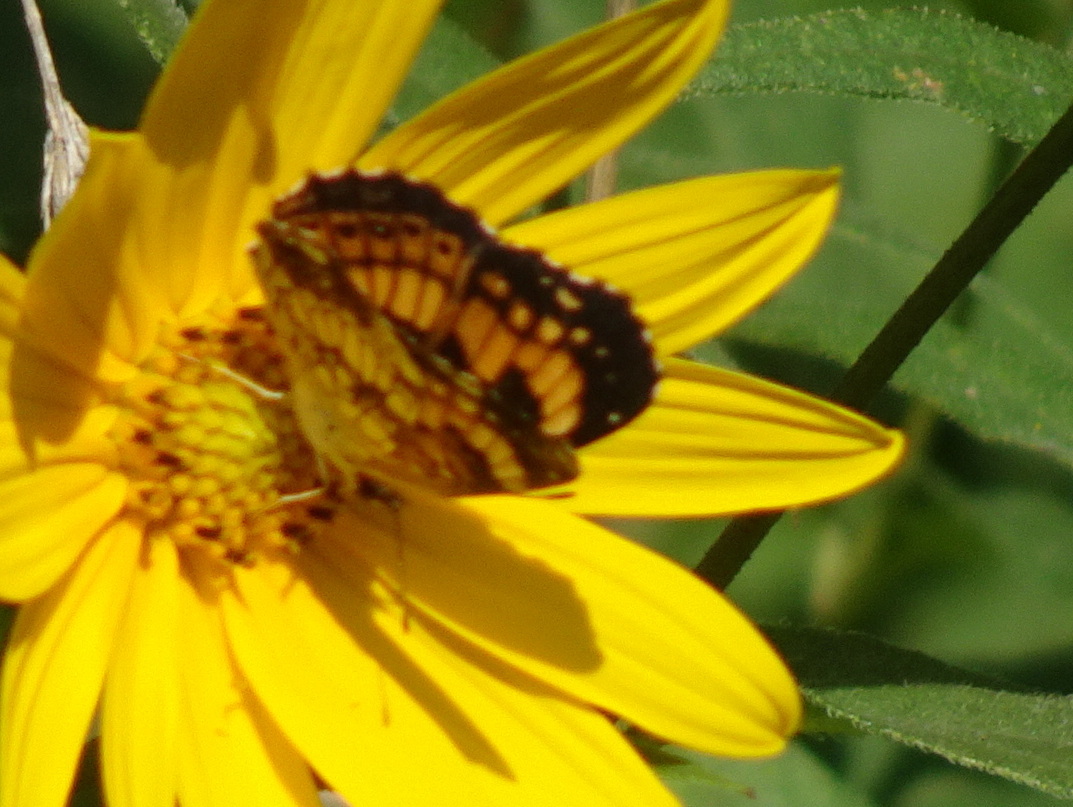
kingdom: Animalia
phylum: Arthropoda
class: Insecta
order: Lepidoptera
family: Nymphalidae
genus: Chlosyne
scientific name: Chlosyne nycteis
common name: Silvery checkerspot
